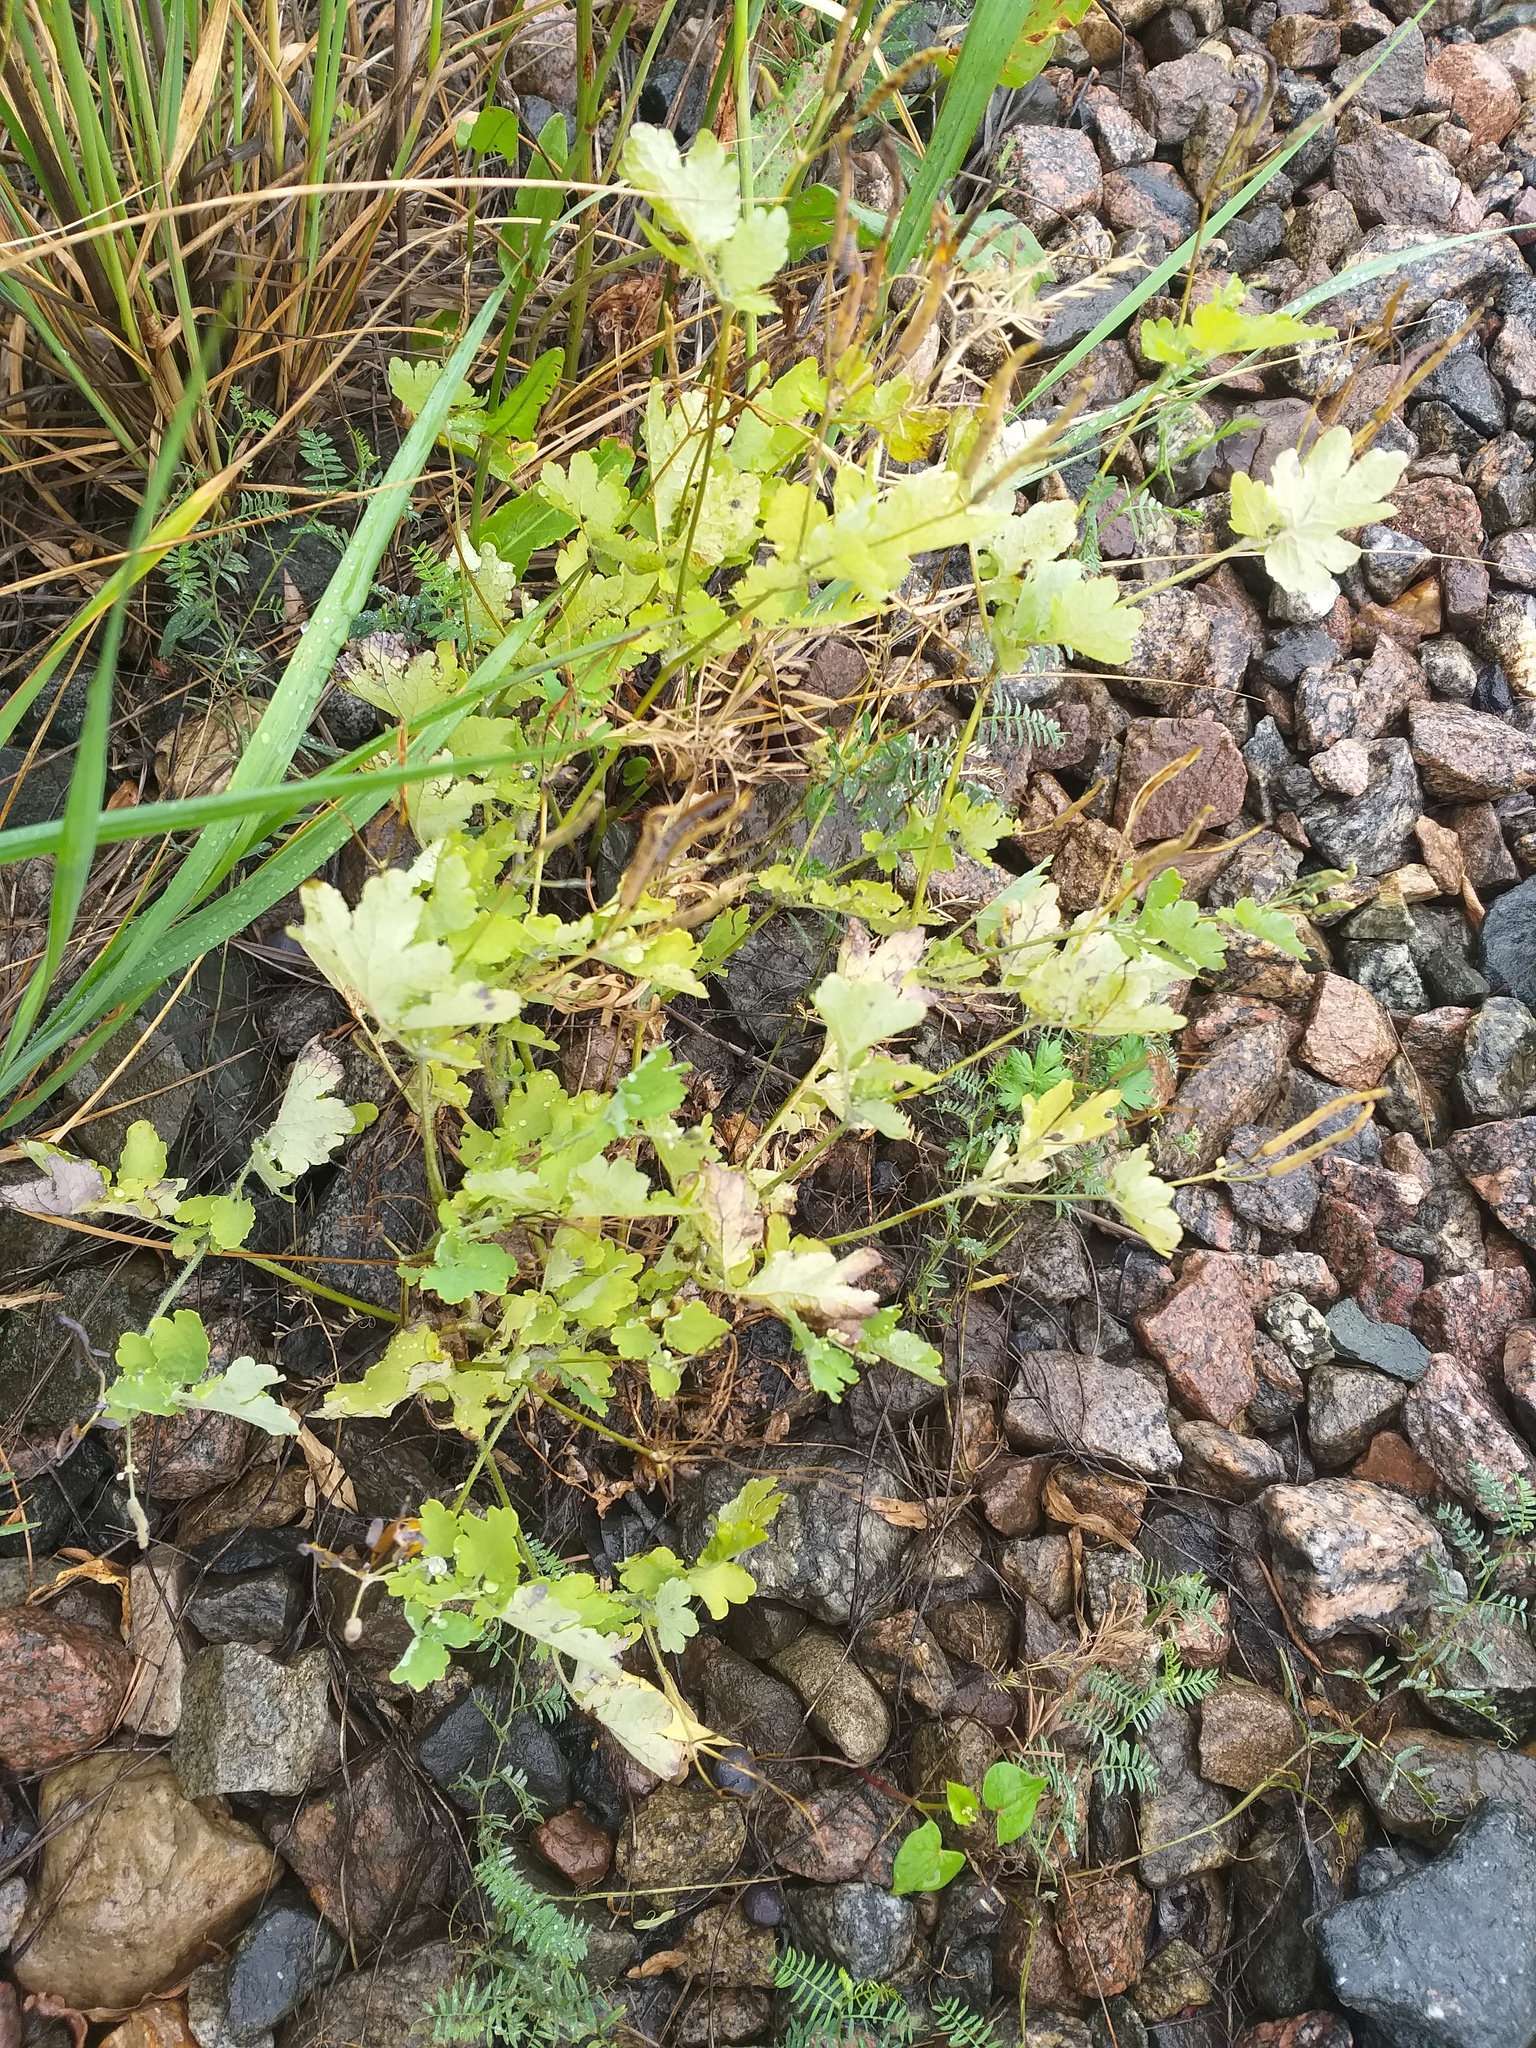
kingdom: Plantae
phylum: Tracheophyta
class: Magnoliopsida
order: Ranunculales
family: Papaveraceae
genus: Chelidonium
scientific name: Chelidonium majus
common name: Greater celandine
